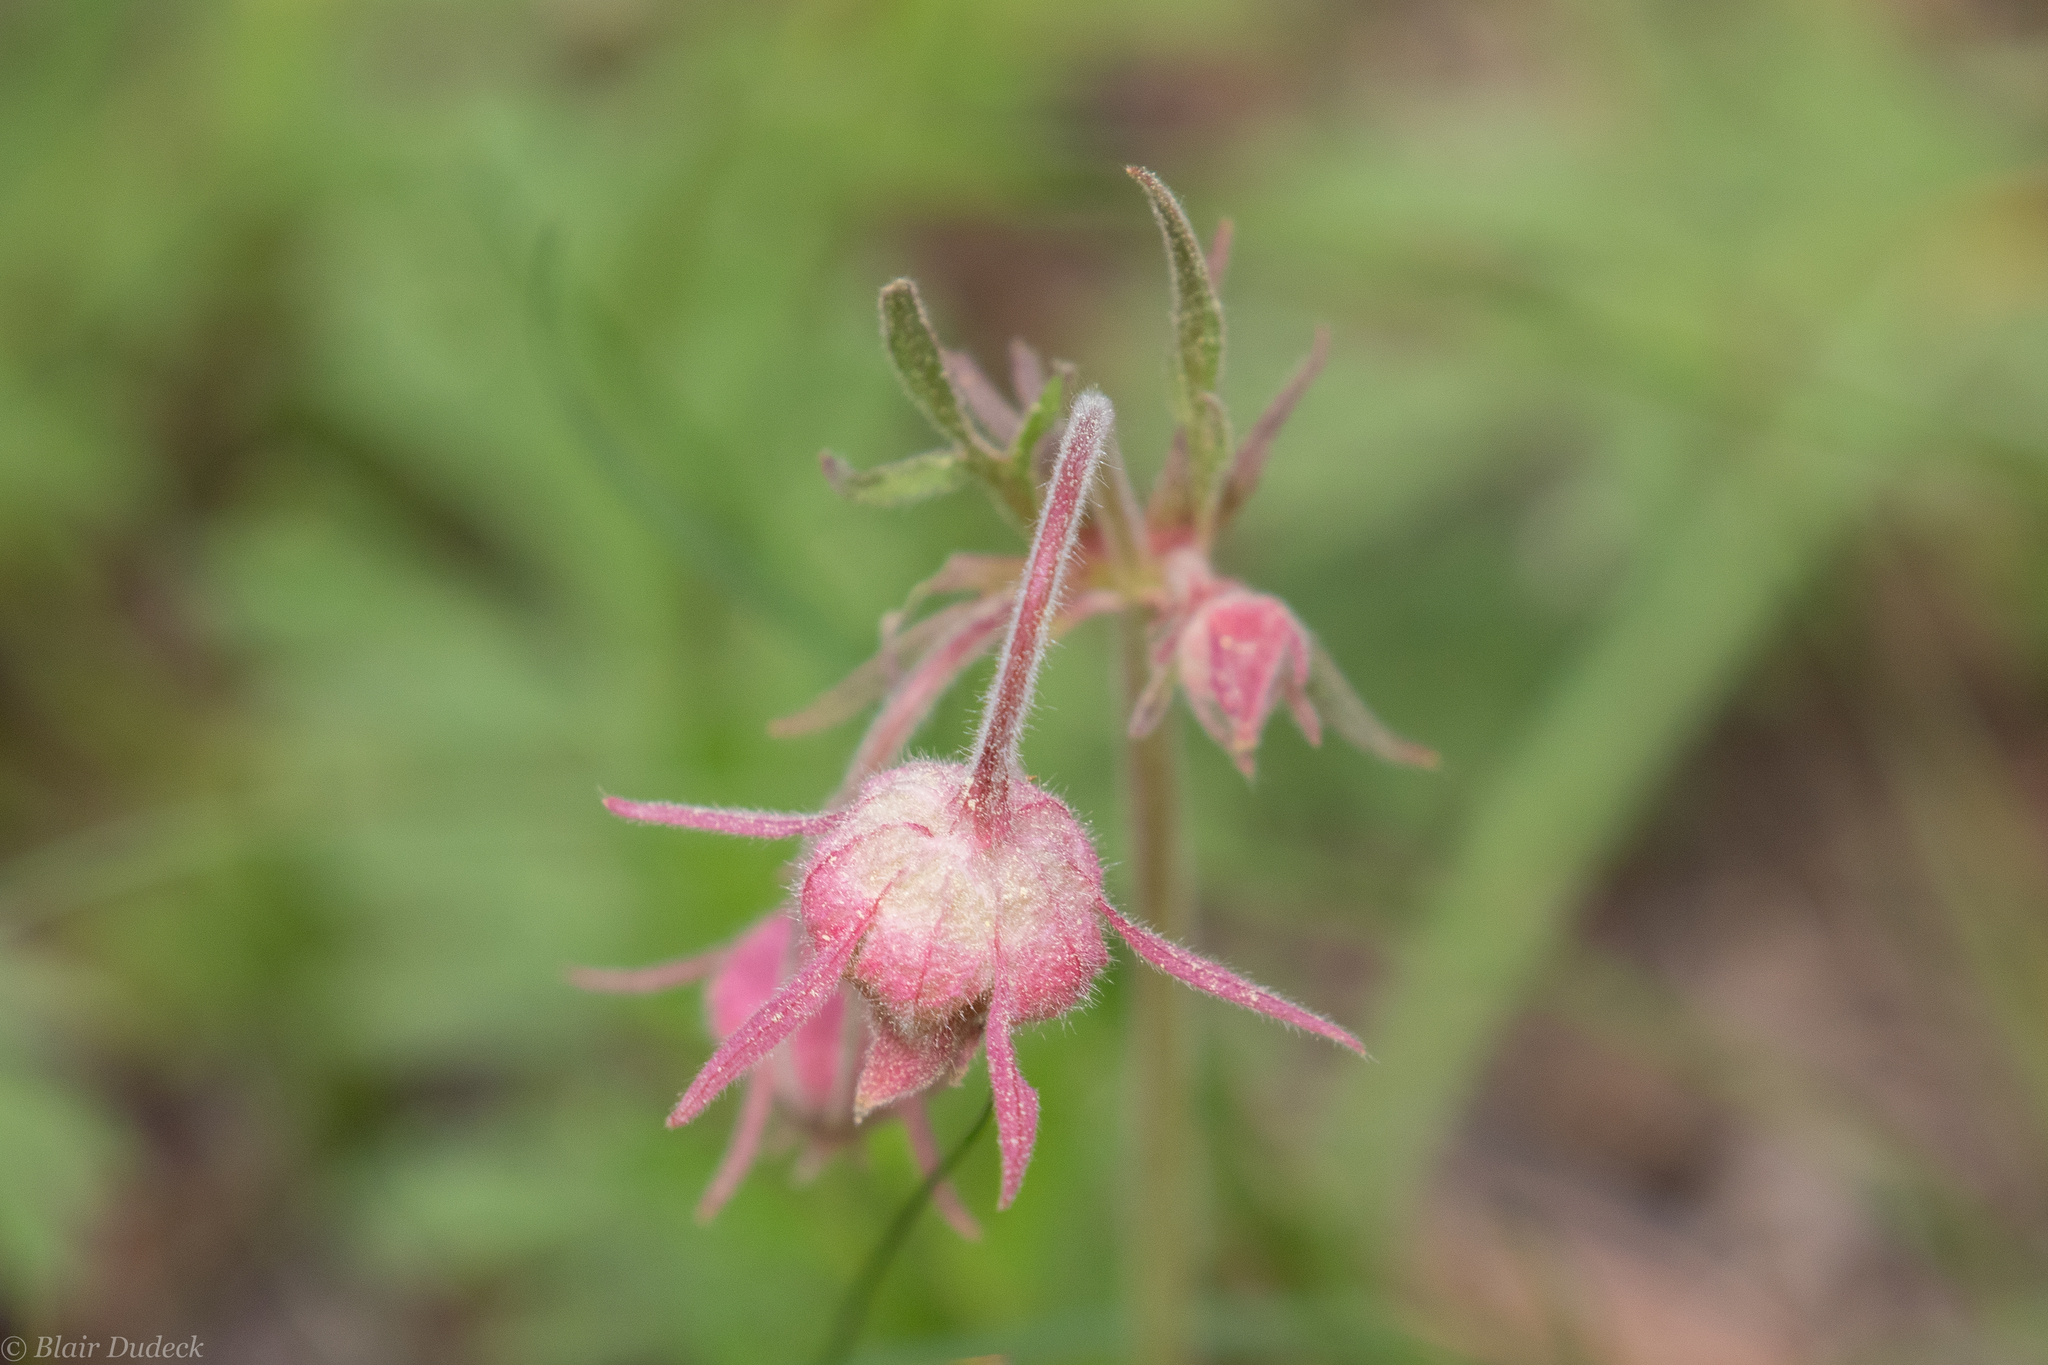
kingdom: Plantae
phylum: Tracheophyta
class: Magnoliopsida
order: Rosales
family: Rosaceae
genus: Geum
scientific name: Geum triflorum
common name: Old man's whiskers
